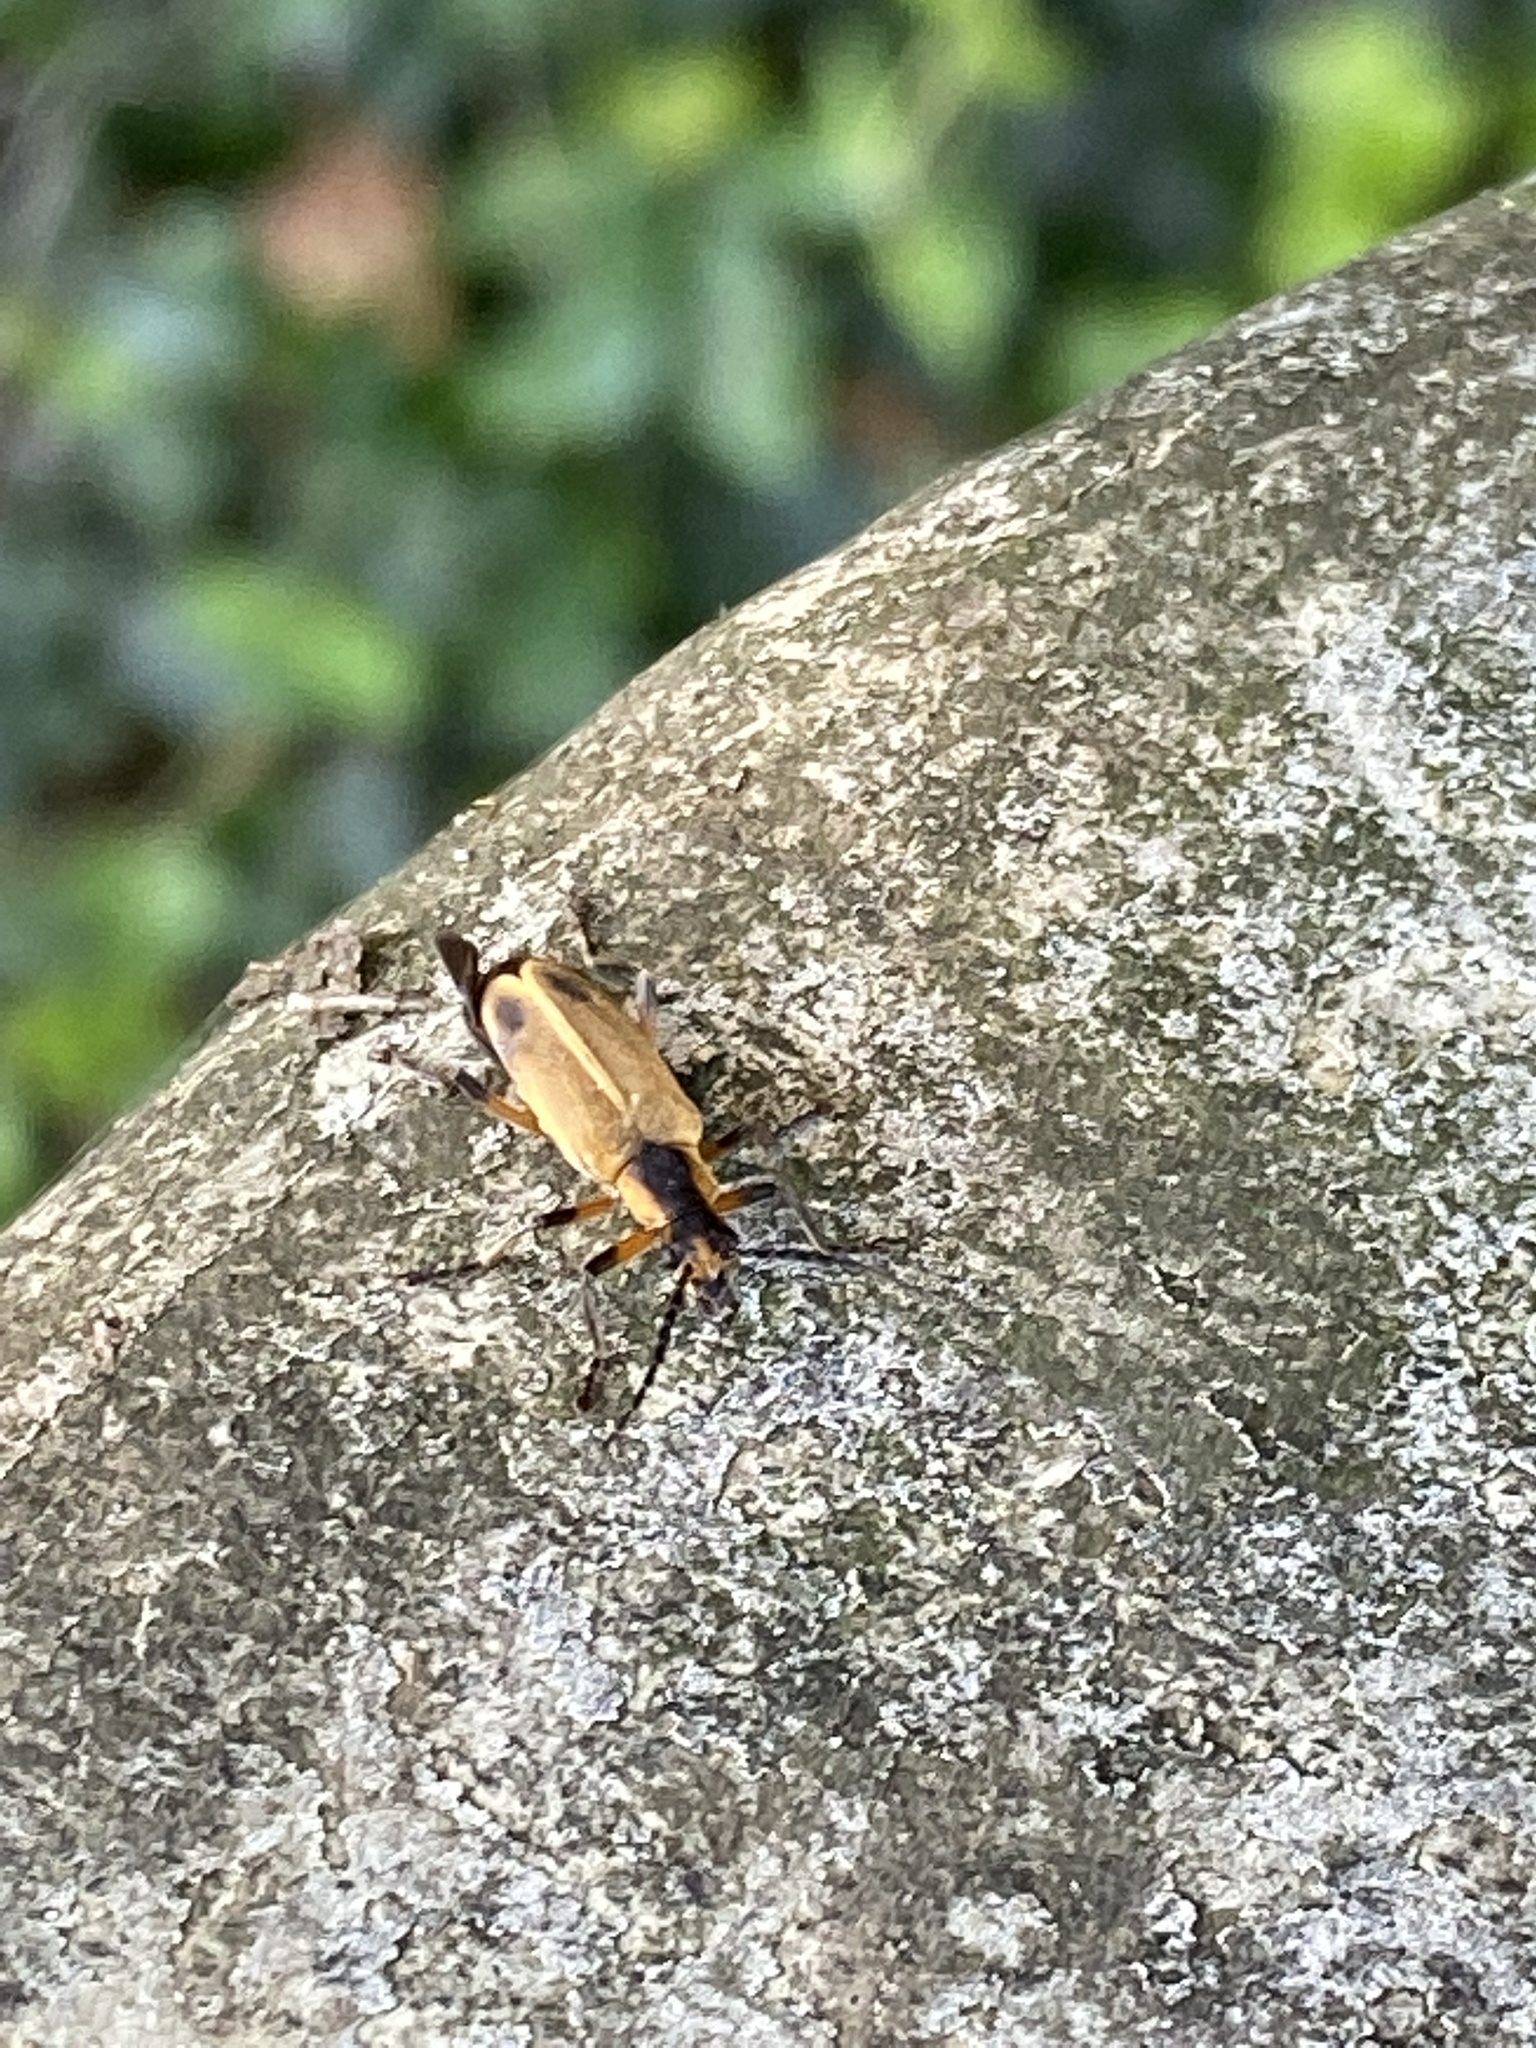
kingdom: Animalia
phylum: Arthropoda
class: Insecta
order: Coleoptera
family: Cantharidae
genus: Chauliognathus
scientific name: Chauliognathus marginatus
